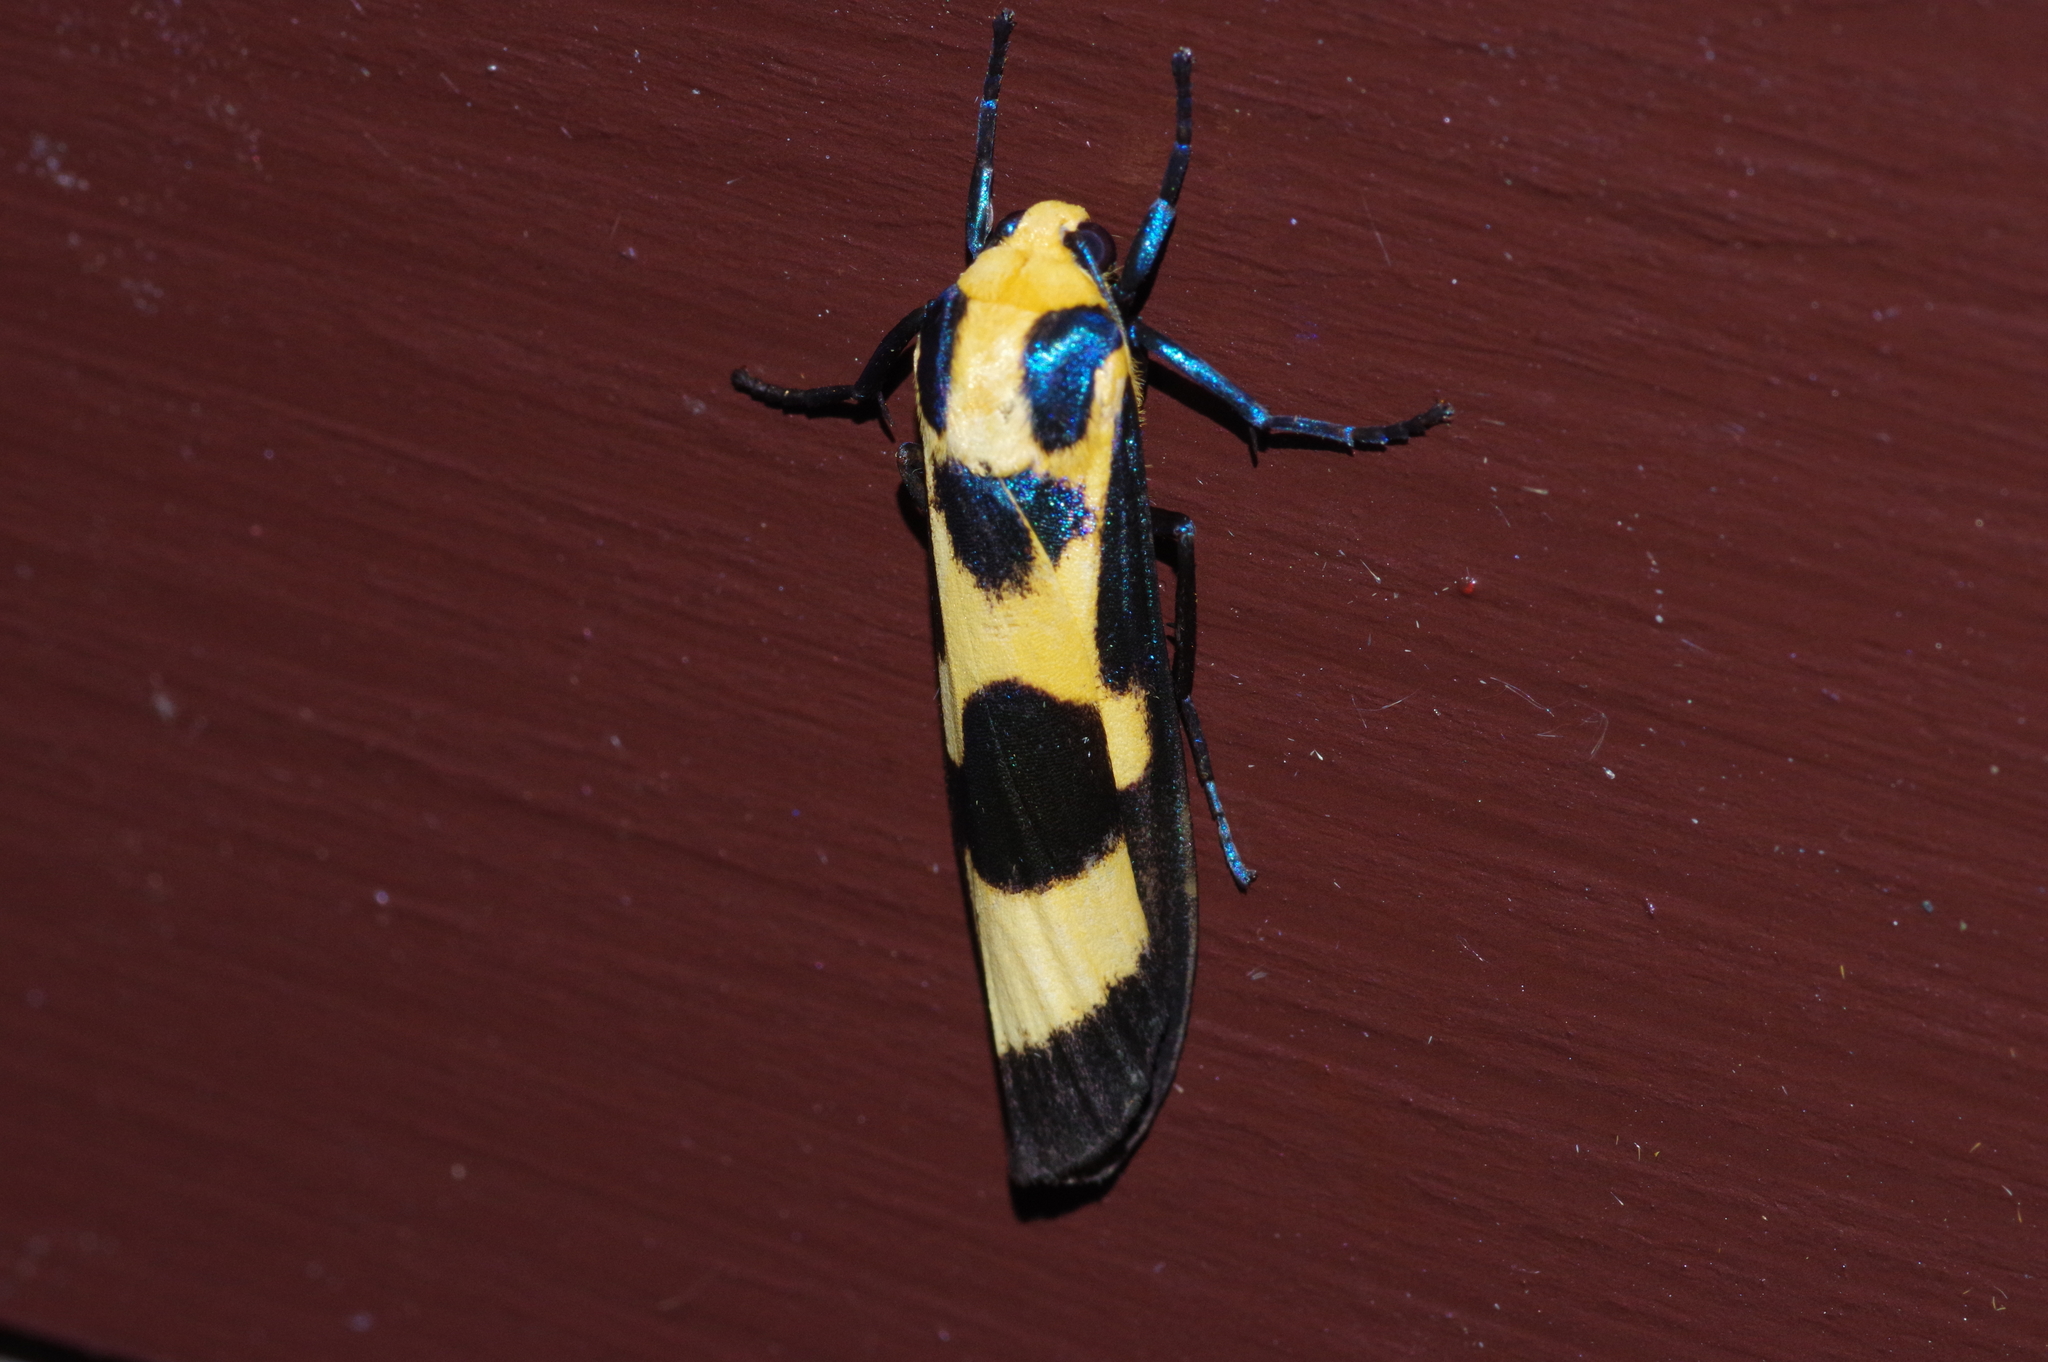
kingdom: Animalia
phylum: Arthropoda
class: Insecta
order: Lepidoptera
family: Erebidae
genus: Chrysaeglia
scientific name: Chrysaeglia magnifica
